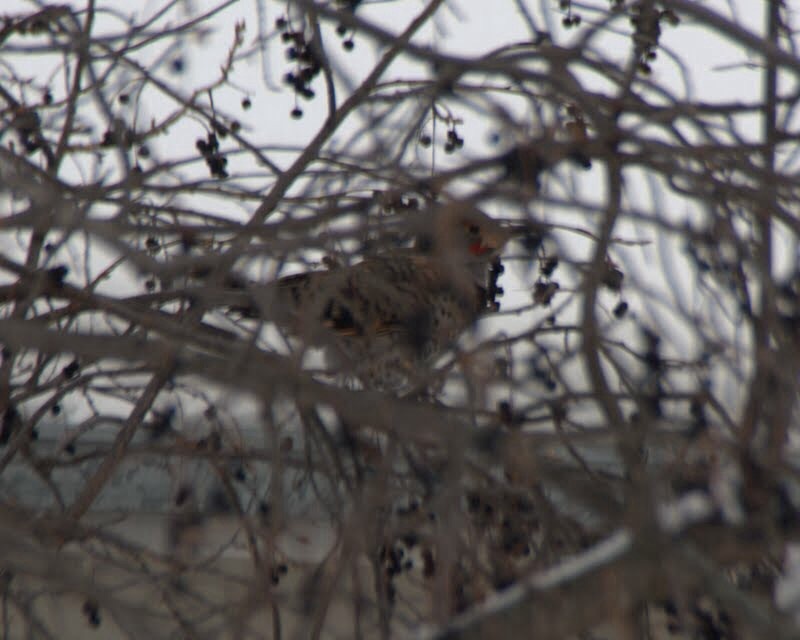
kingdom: Animalia
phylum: Chordata
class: Aves
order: Piciformes
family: Picidae
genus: Colaptes
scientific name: Colaptes auratus
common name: Northern flicker
